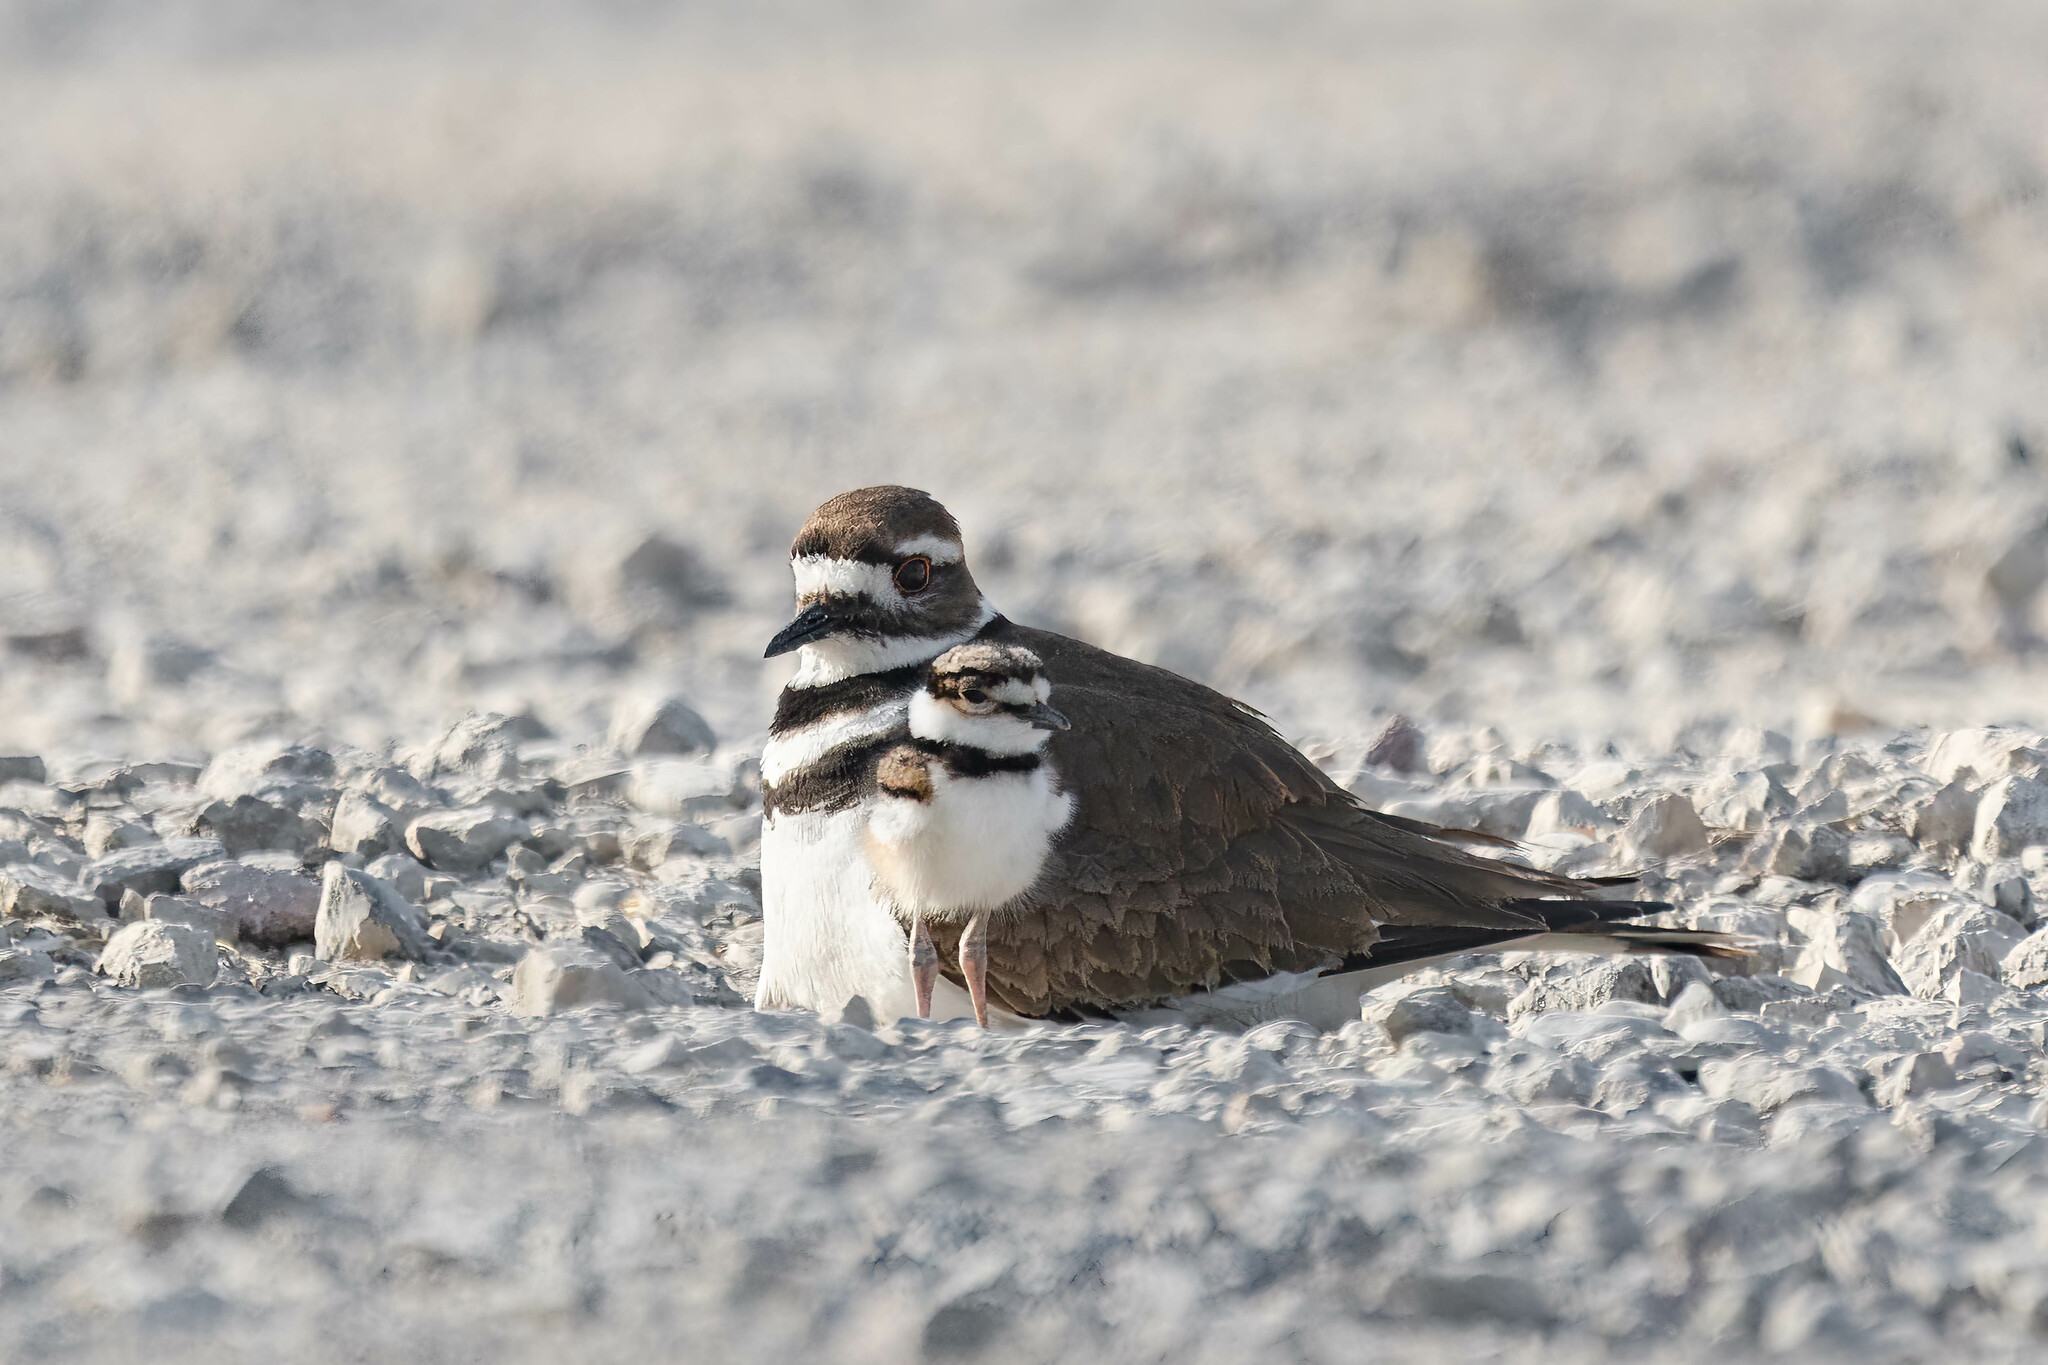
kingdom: Animalia
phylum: Chordata
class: Aves
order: Charadriiformes
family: Charadriidae
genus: Charadrius
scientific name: Charadrius vociferus
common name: Killdeer
